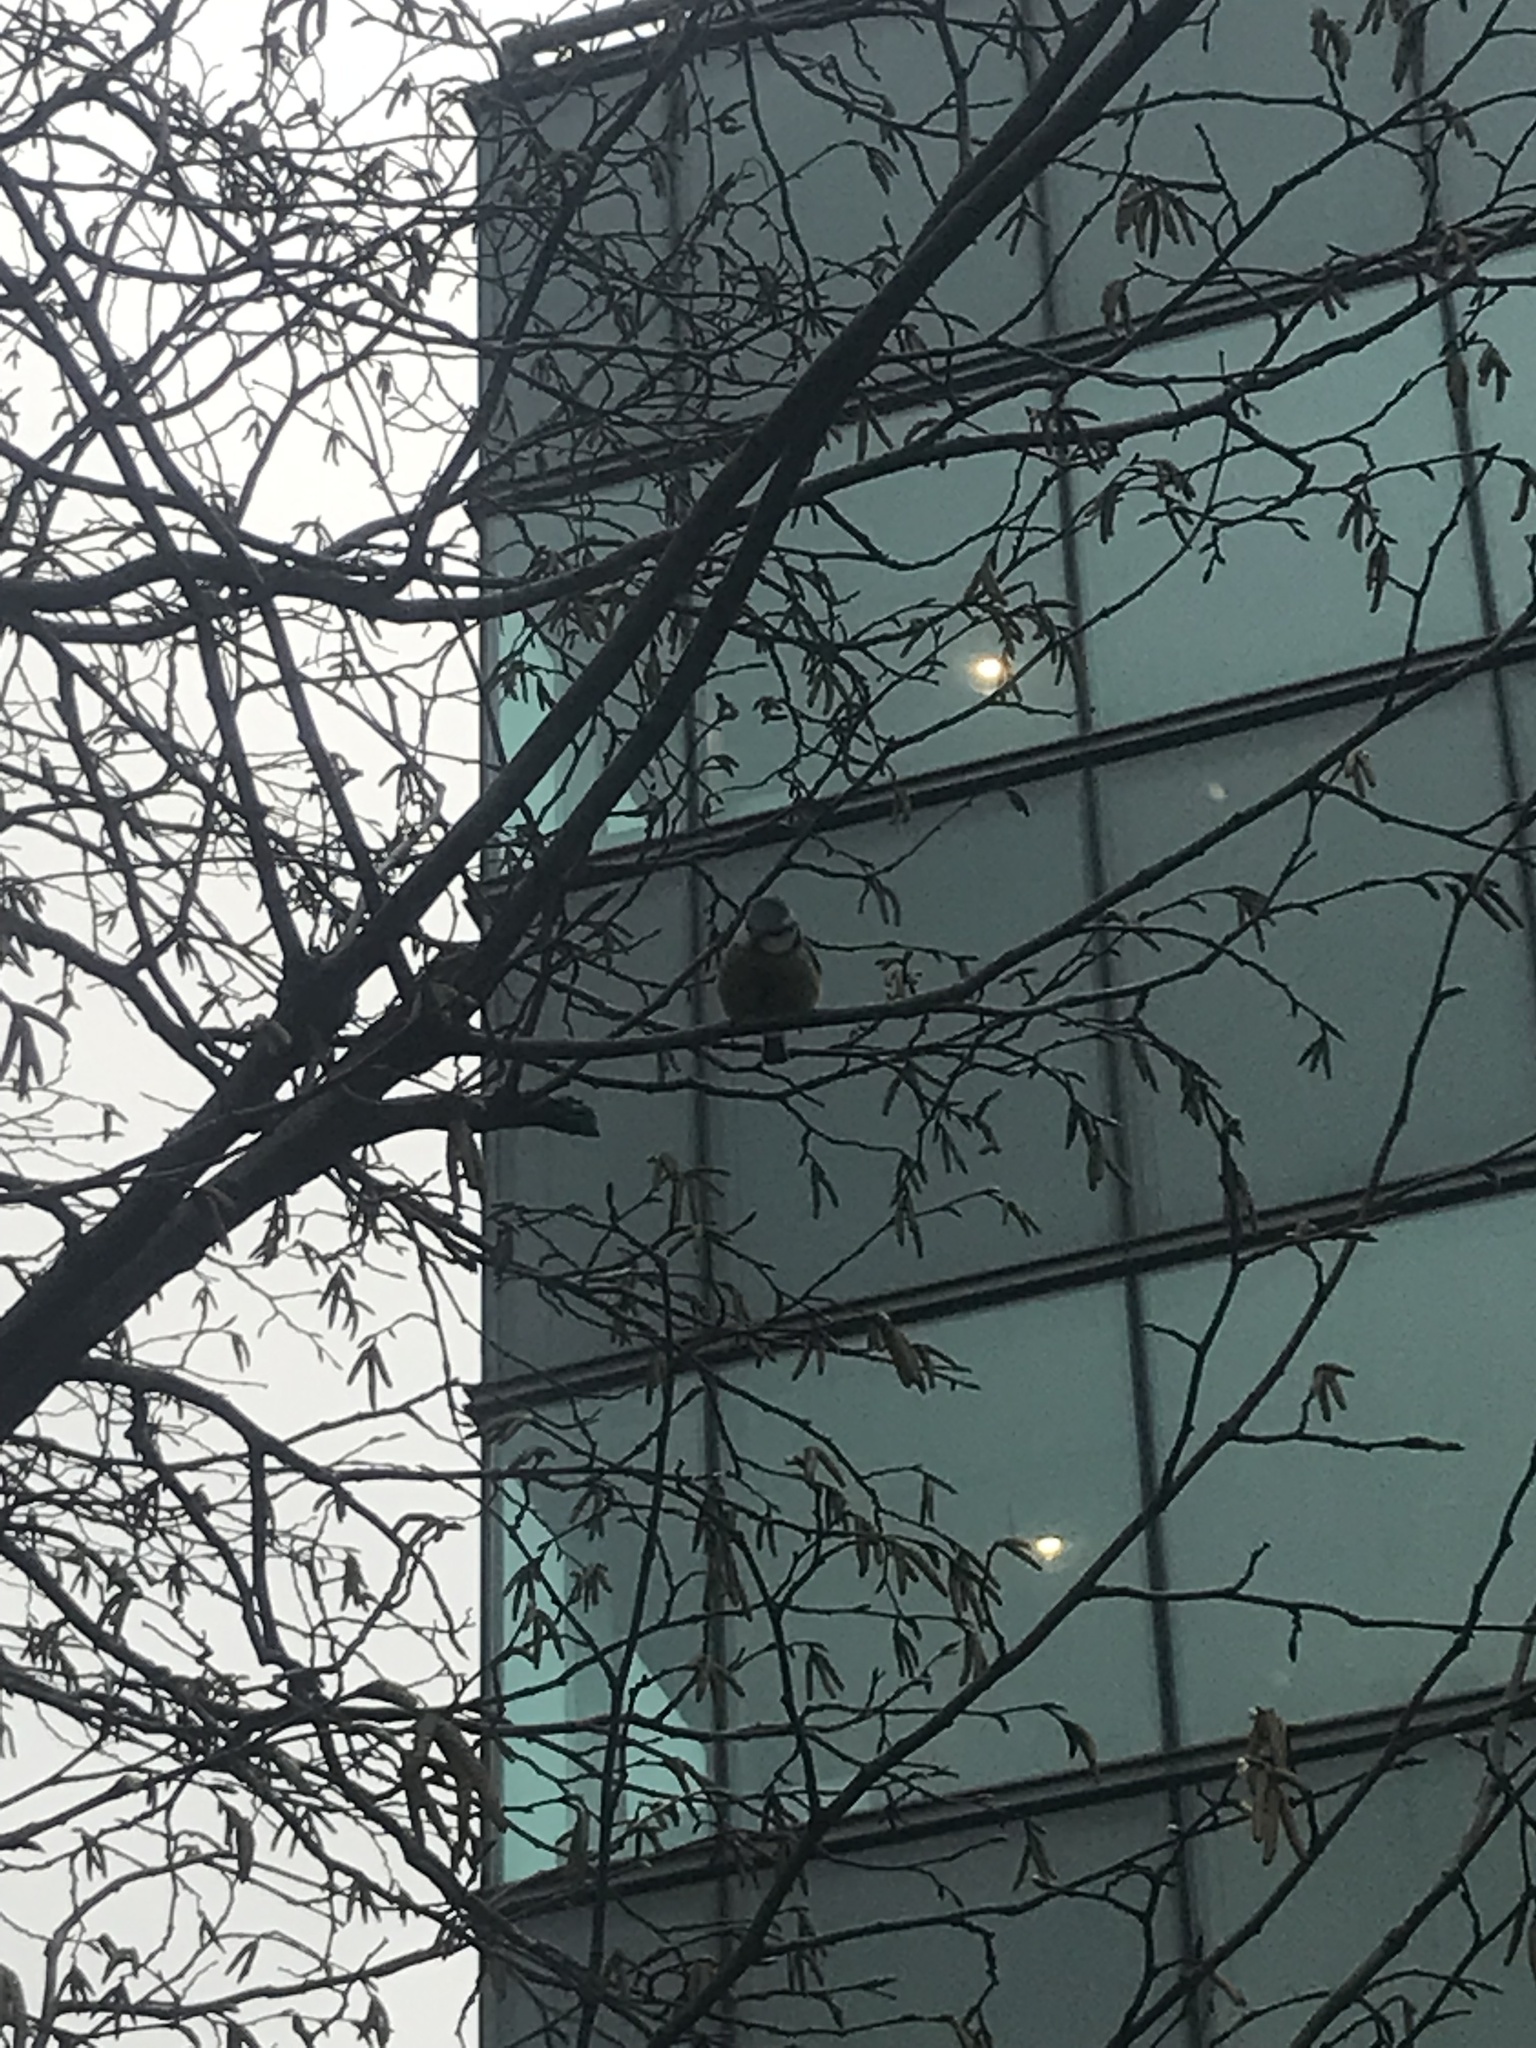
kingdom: Animalia
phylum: Chordata
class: Aves
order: Passeriformes
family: Paridae
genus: Cyanistes
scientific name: Cyanistes caeruleus
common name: Eurasian blue tit
